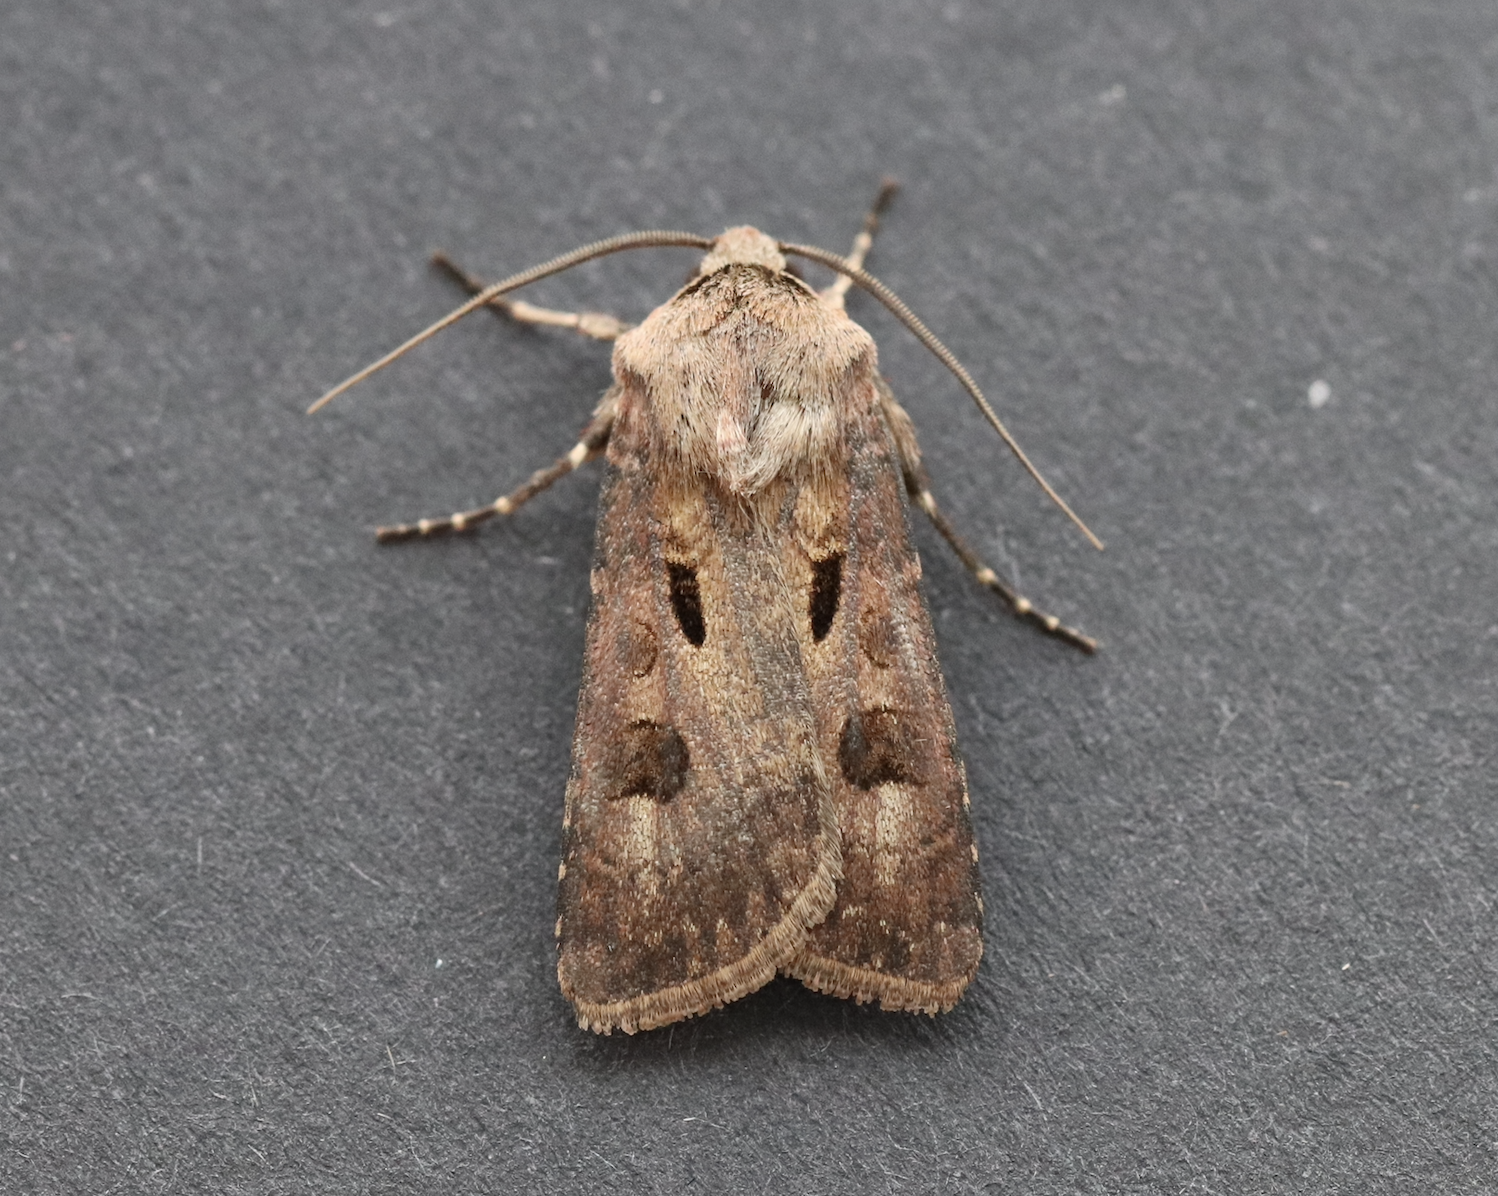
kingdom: Animalia
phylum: Arthropoda
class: Insecta
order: Lepidoptera
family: Noctuidae
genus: Agrotis
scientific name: Agrotis exclamationis
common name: Heart and dart
